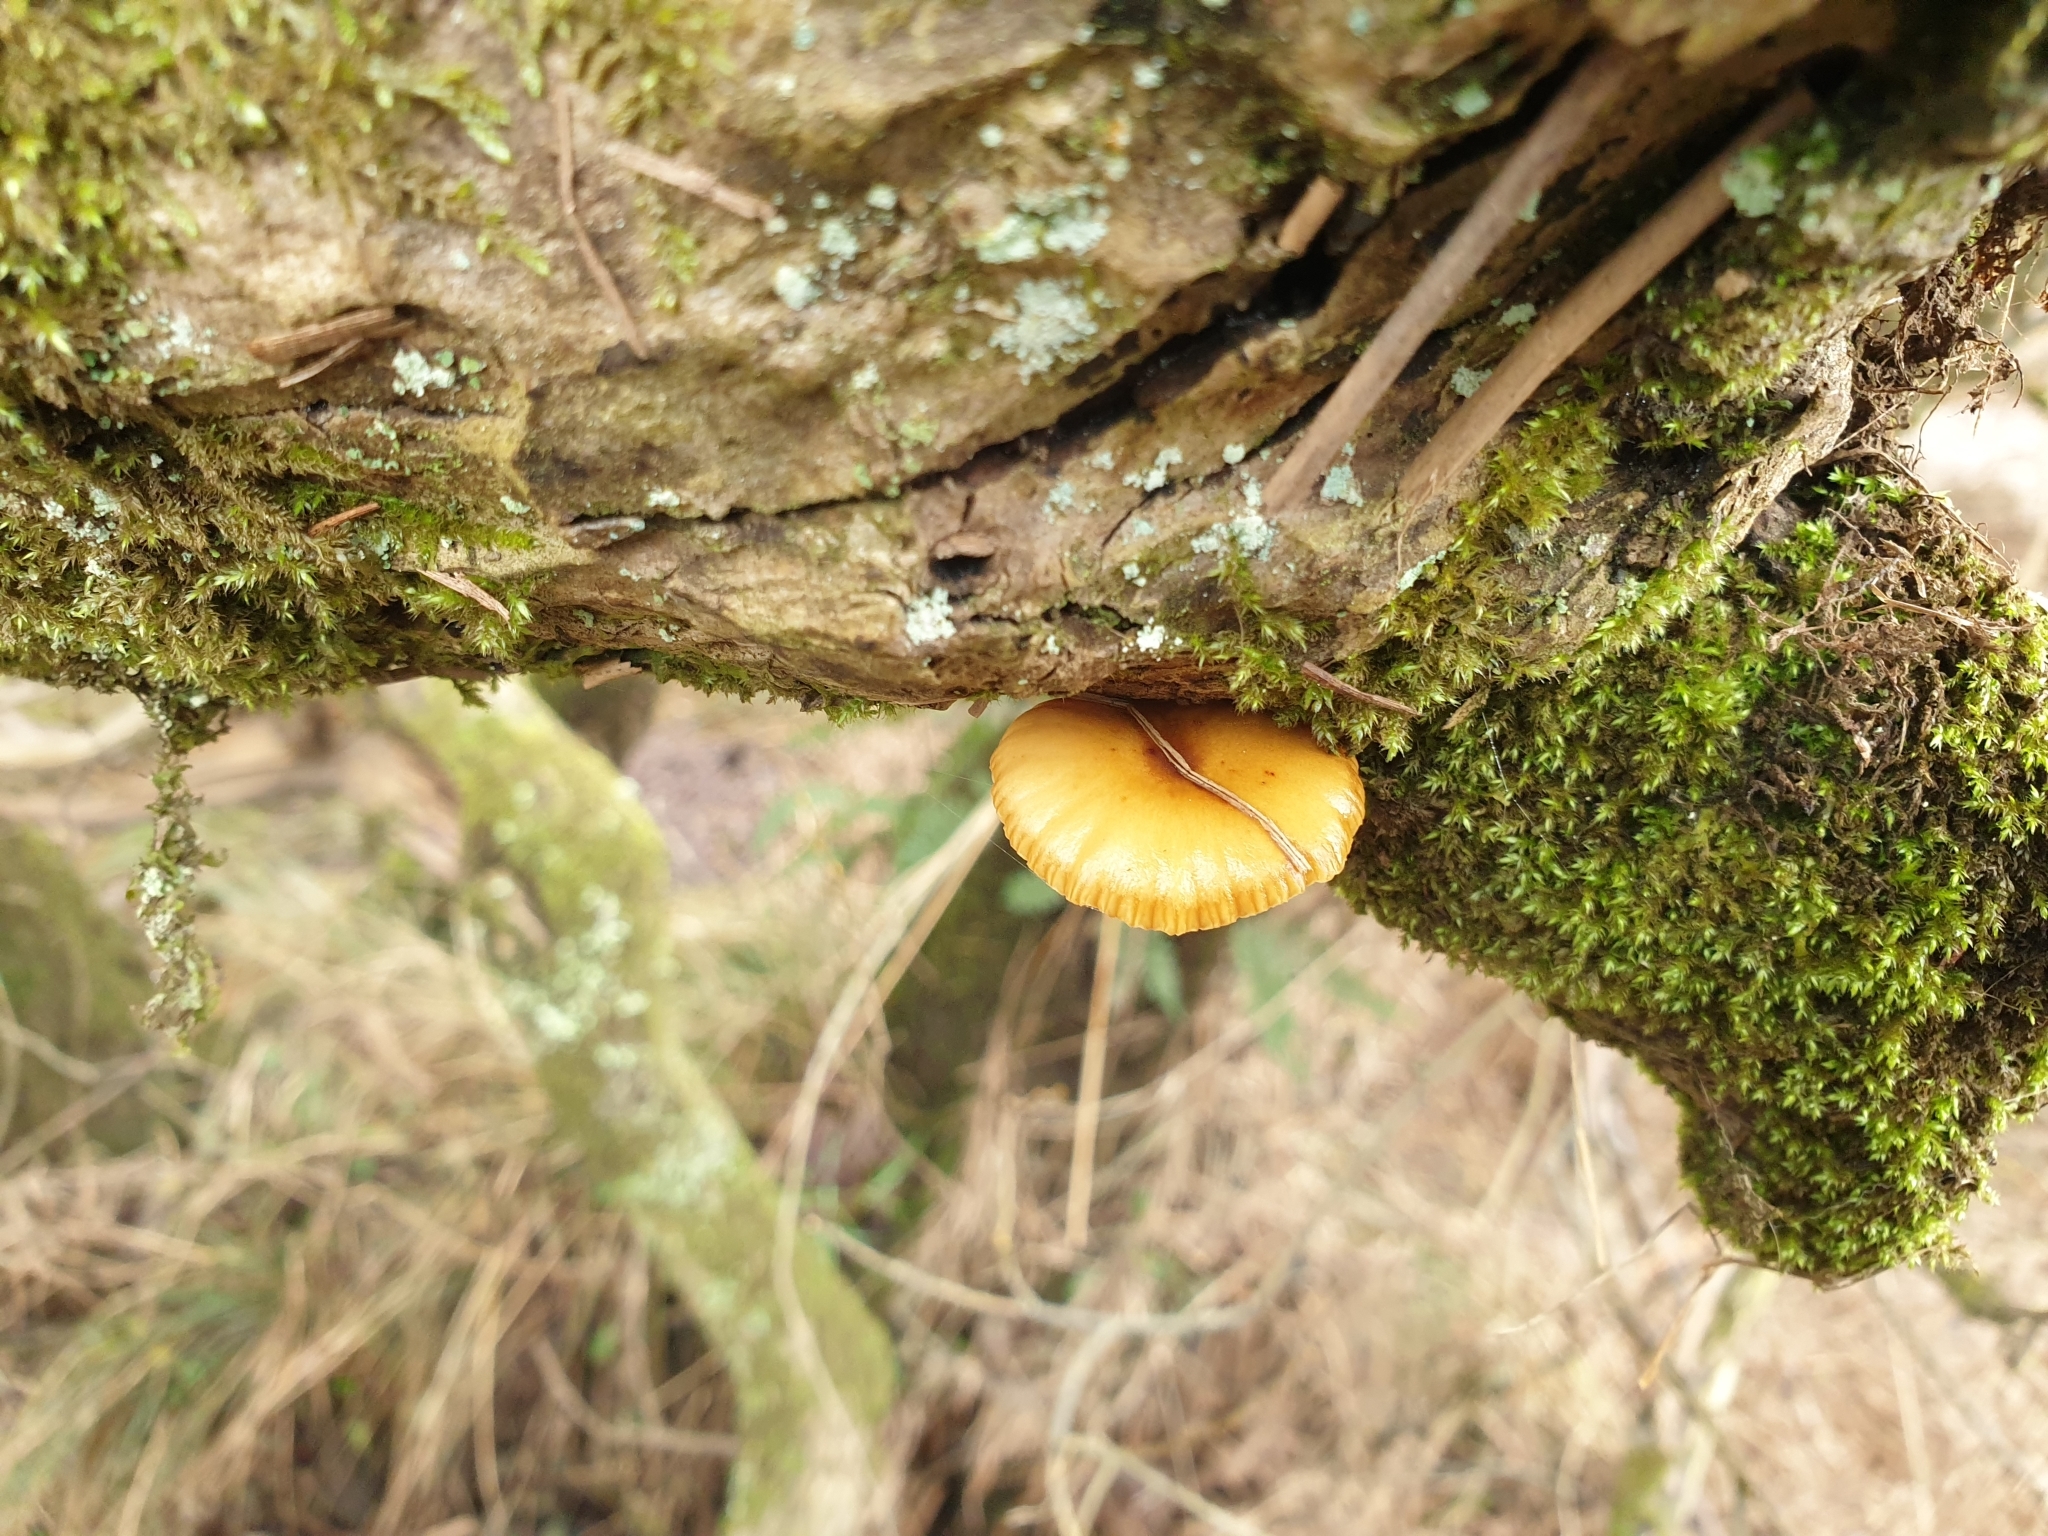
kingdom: Fungi
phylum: Basidiomycota
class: Agaricomycetes
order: Agaricales
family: Physalacriaceae
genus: Flammulina
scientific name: Flammulina
